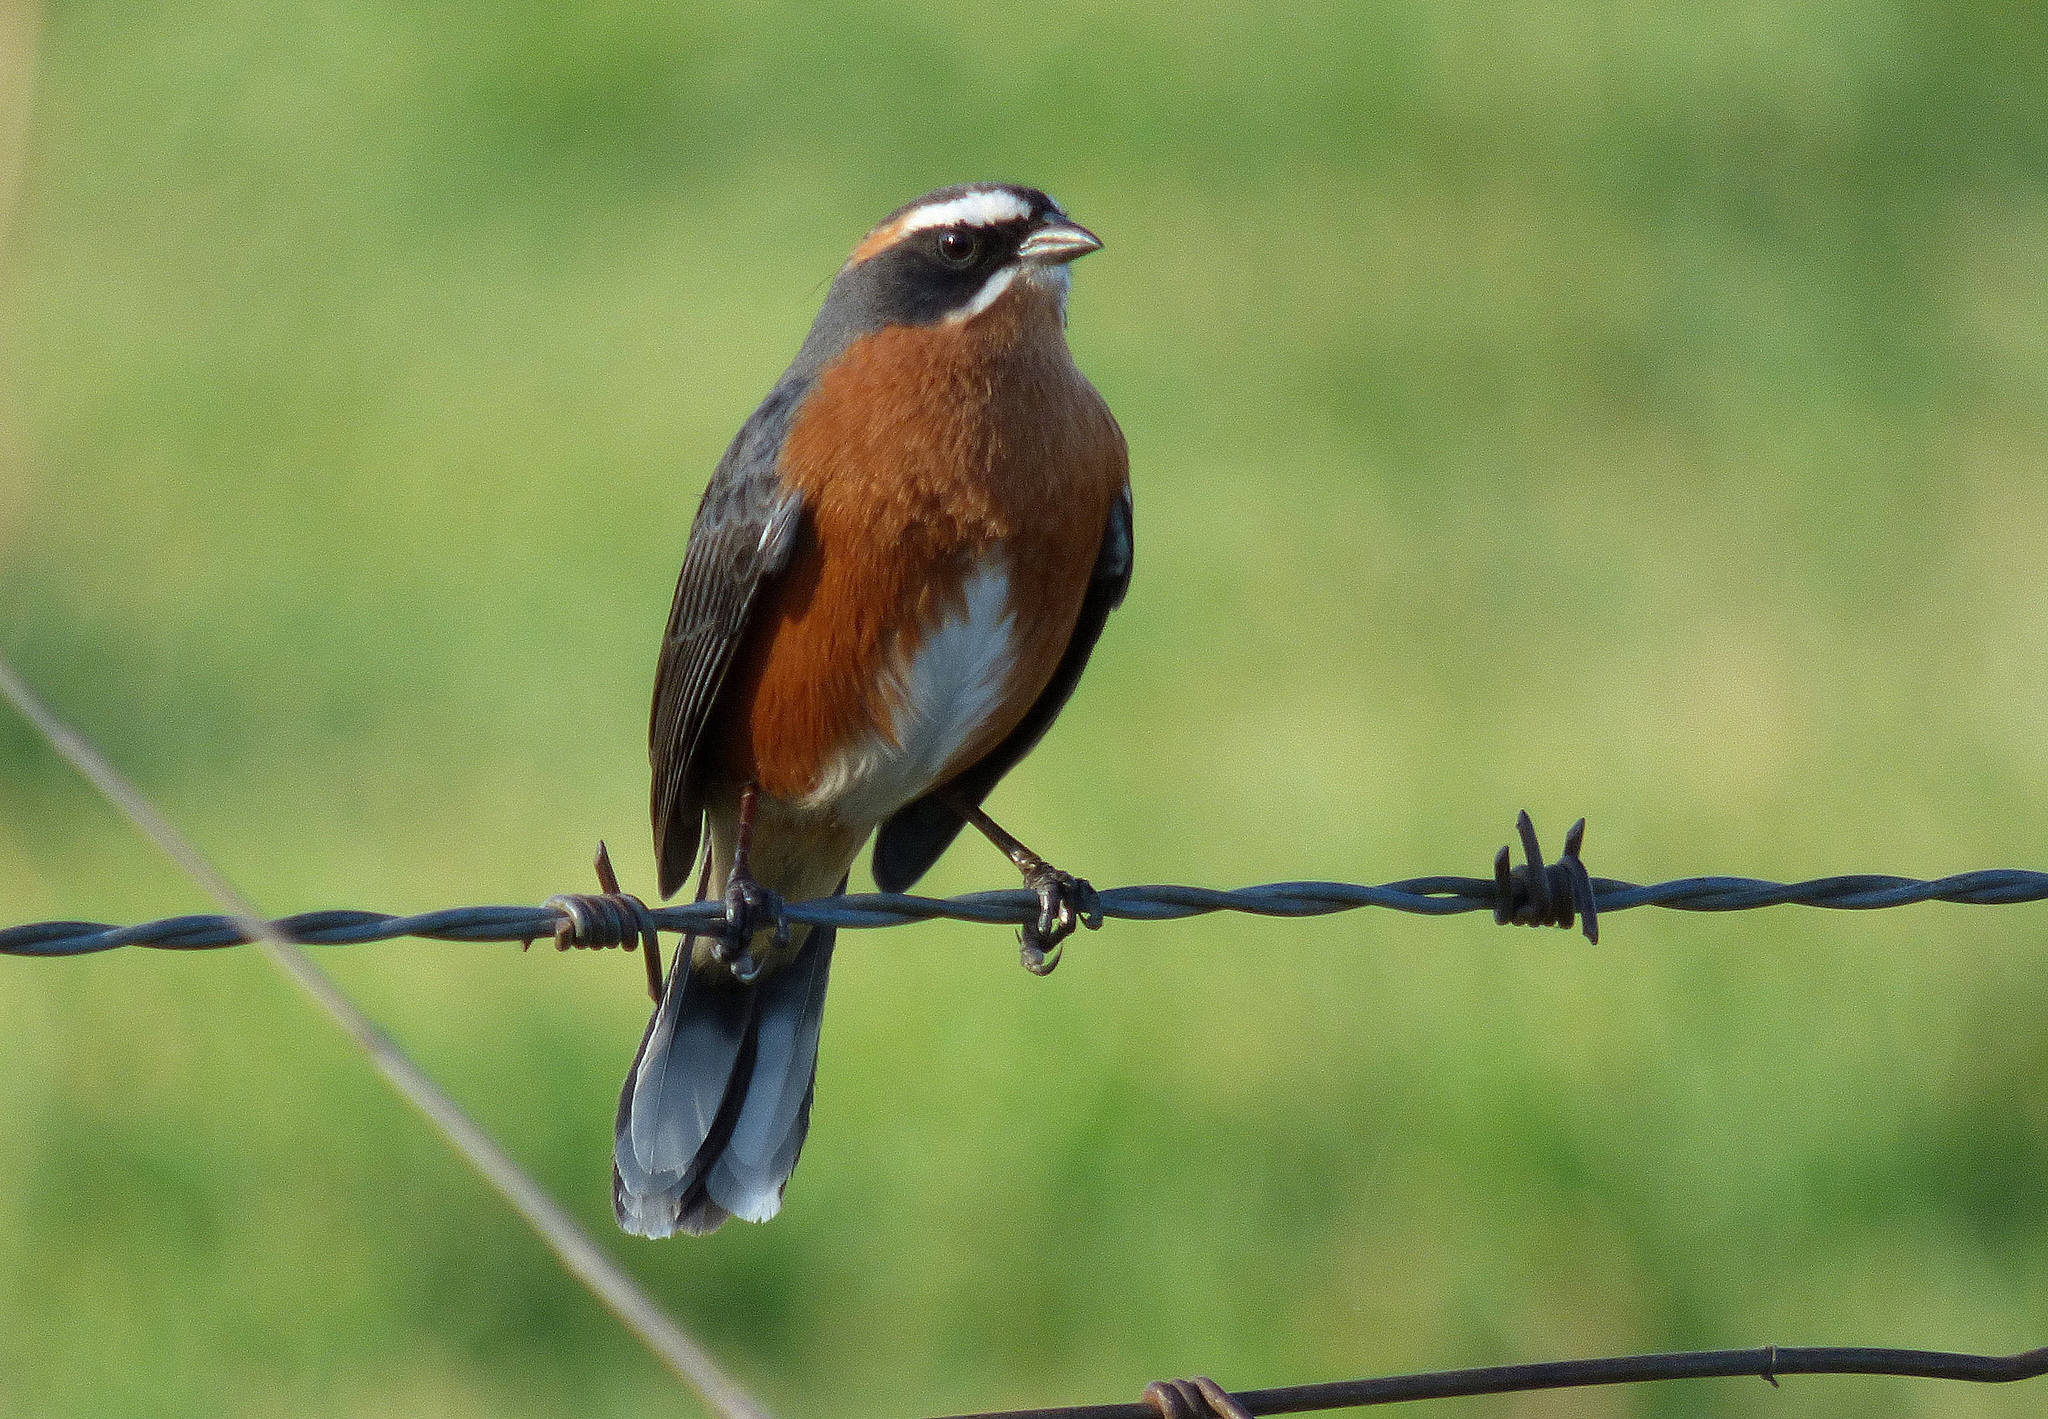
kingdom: Animalia
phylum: Chordata
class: Aves
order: Passeriformes
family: Thraupidae
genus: Poospiza
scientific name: Poospiza nigrorufa
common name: Black-and-rufous warbling finch
